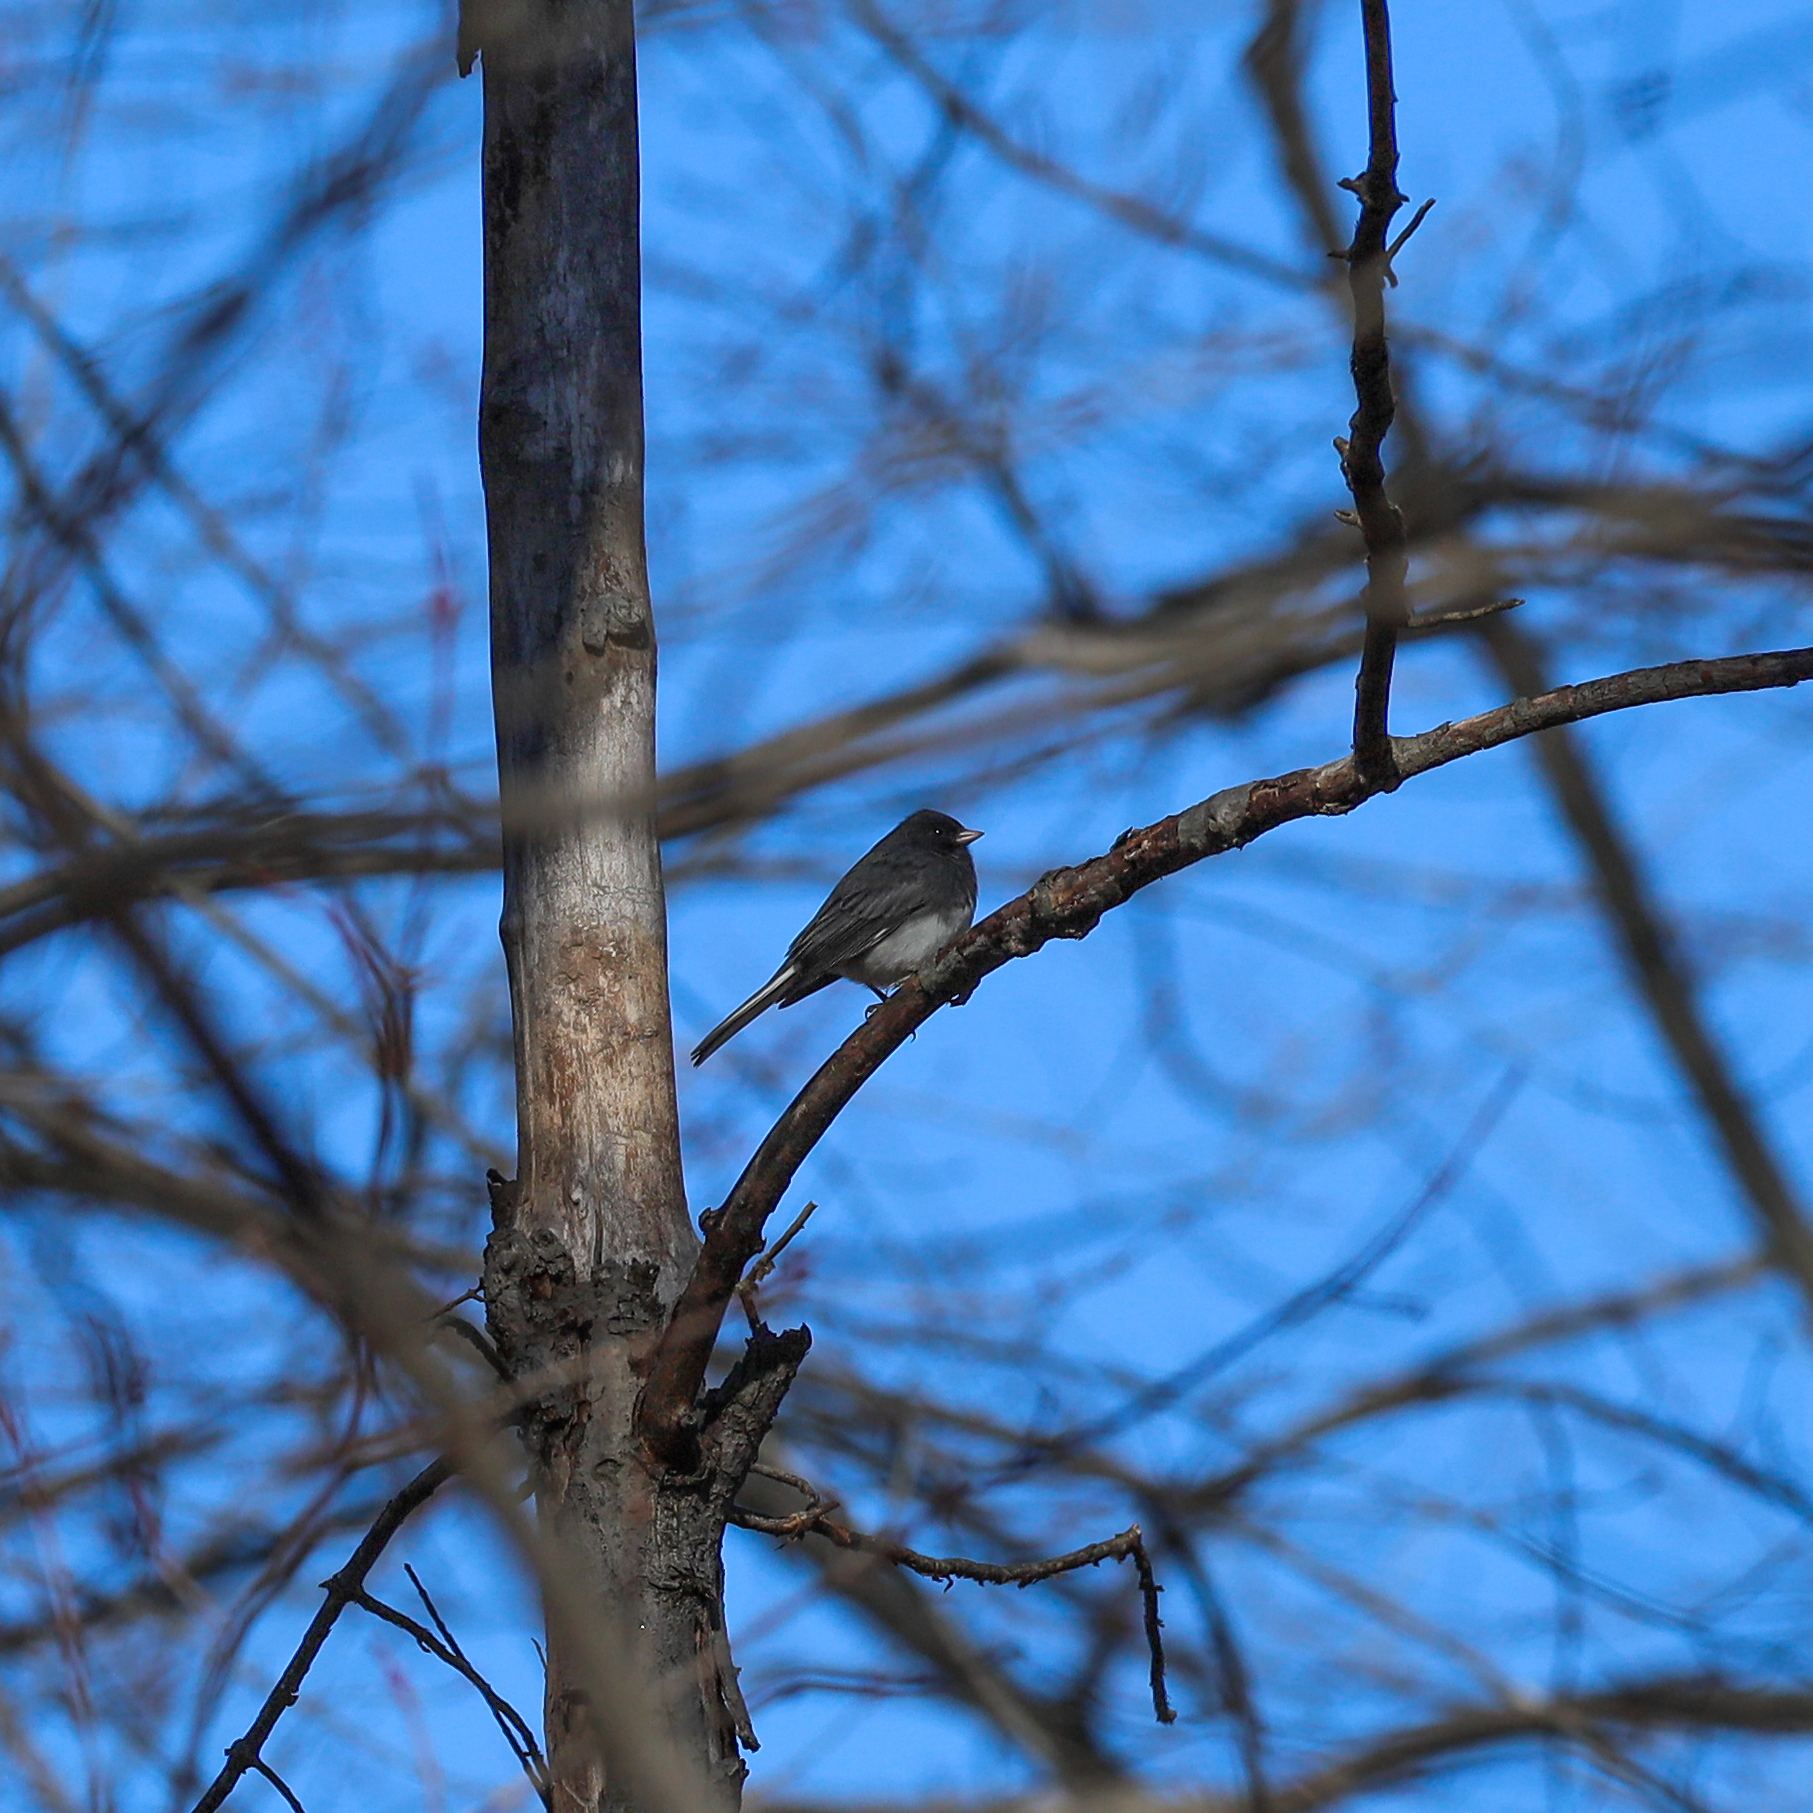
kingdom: Animalia
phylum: Chordata
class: Aves
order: Passeriformes
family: Passerellidae
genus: Junco
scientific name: Junco hyemalis
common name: Dark-eyed junco
